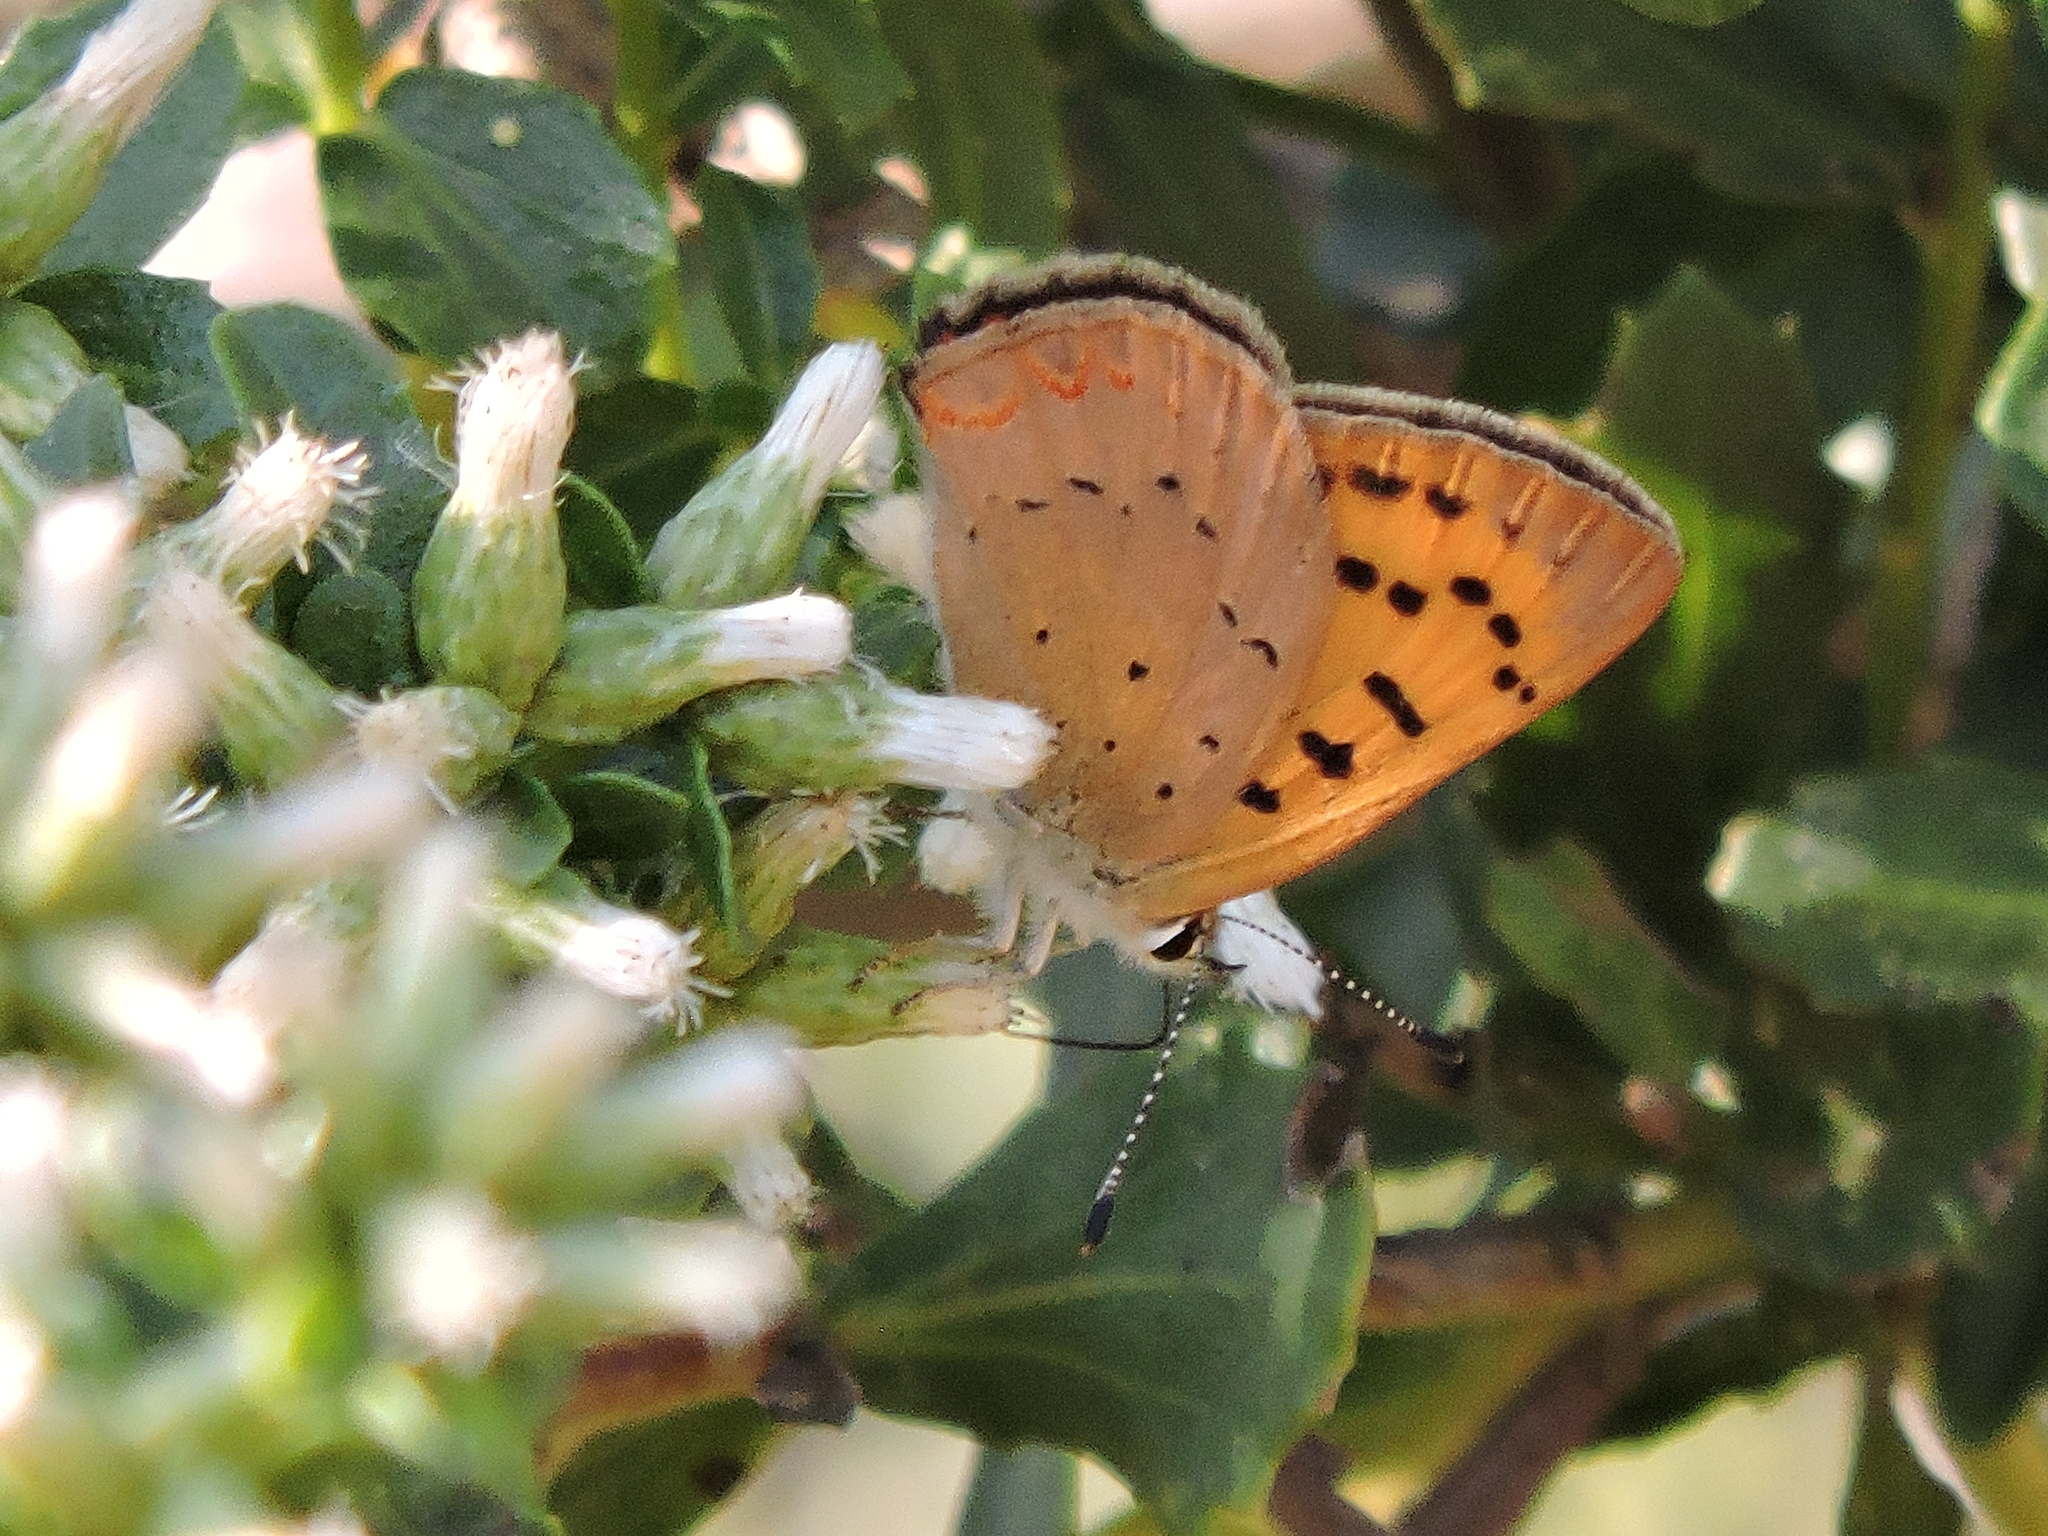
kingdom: Animalia
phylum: Arthropoda
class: Insecta
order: Lepidoptera
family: Lycaenidae
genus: Tharsalea
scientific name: Tharsalea helloides
